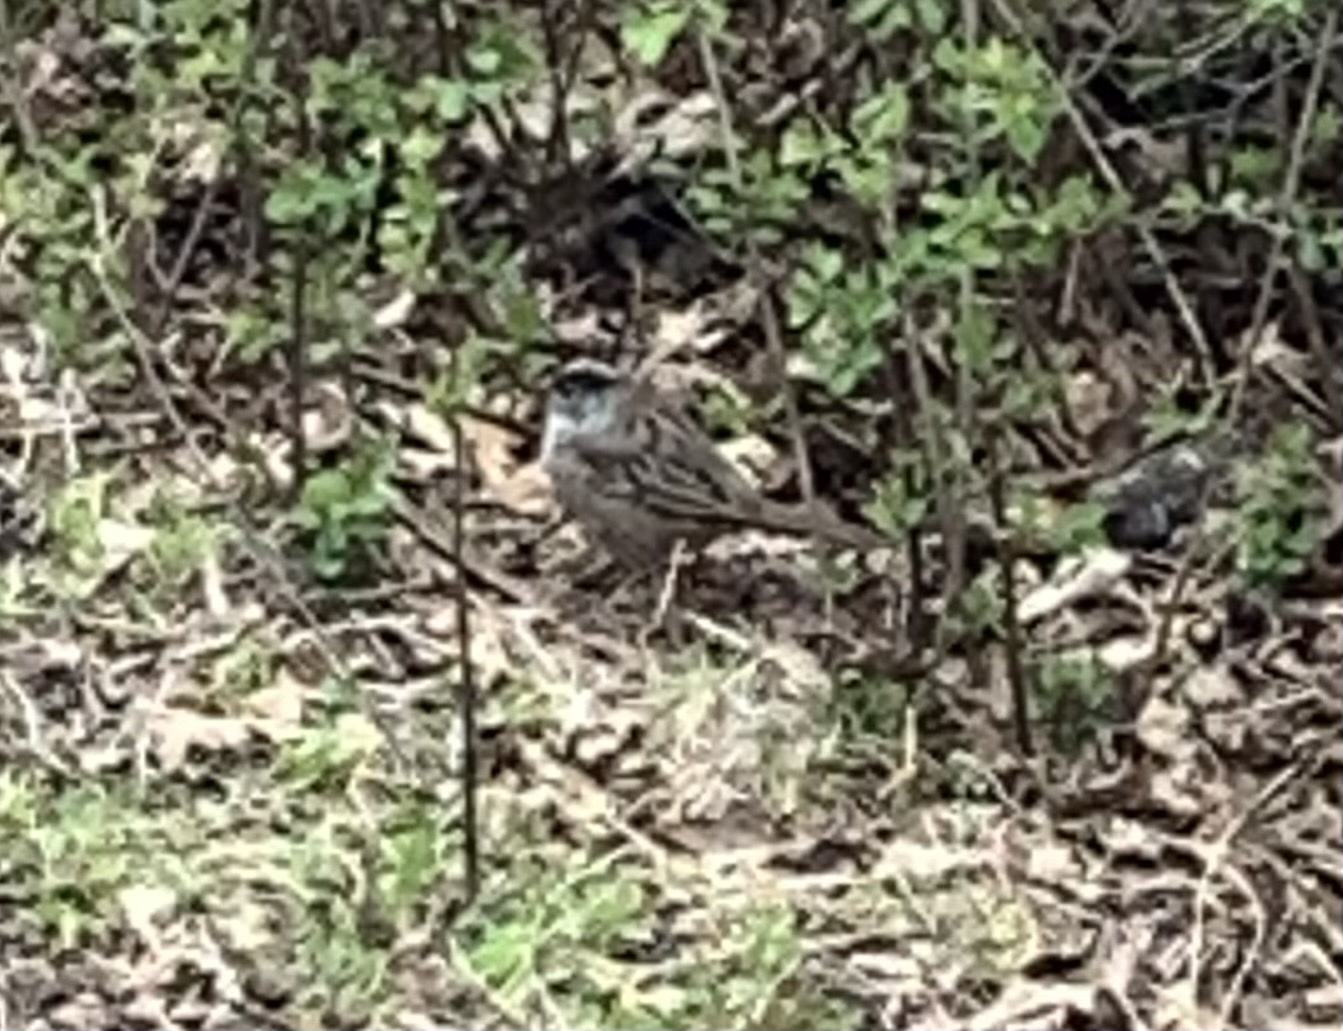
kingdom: Animalia
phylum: Chordata
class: Aves
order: Passeriformes
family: Passerellidae
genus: Zonotrichia
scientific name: Zonotrichia atricapilla
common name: Golden-crowned sparrow
